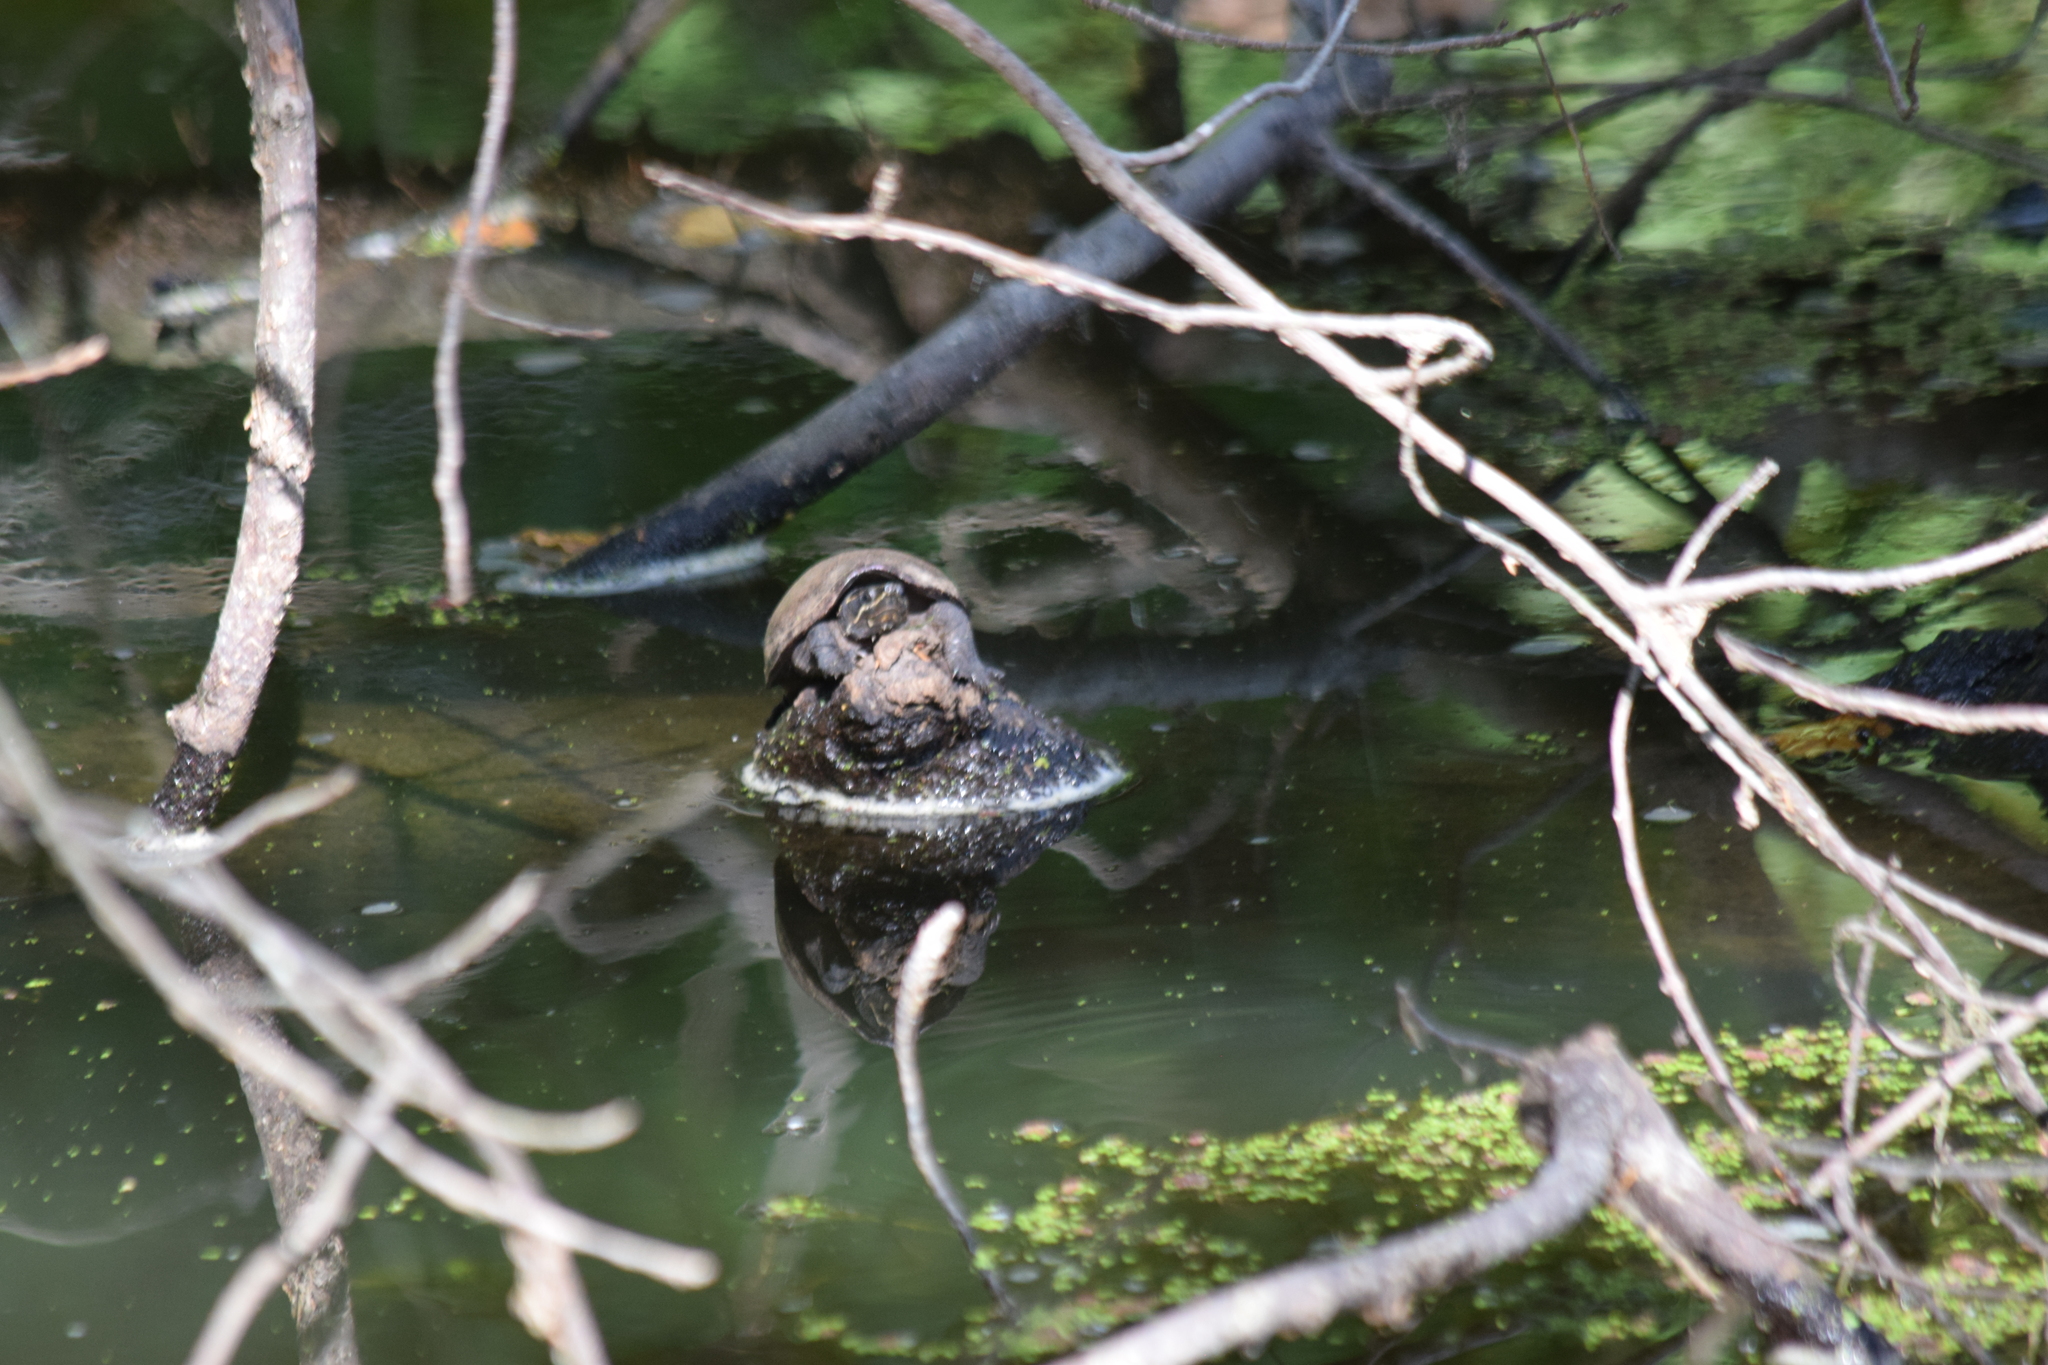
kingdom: Animalia
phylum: Chordata
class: Testudines
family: Kinosternidae
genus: Sternotherus
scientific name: Sternotherus odoratus
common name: Common musk turtle
